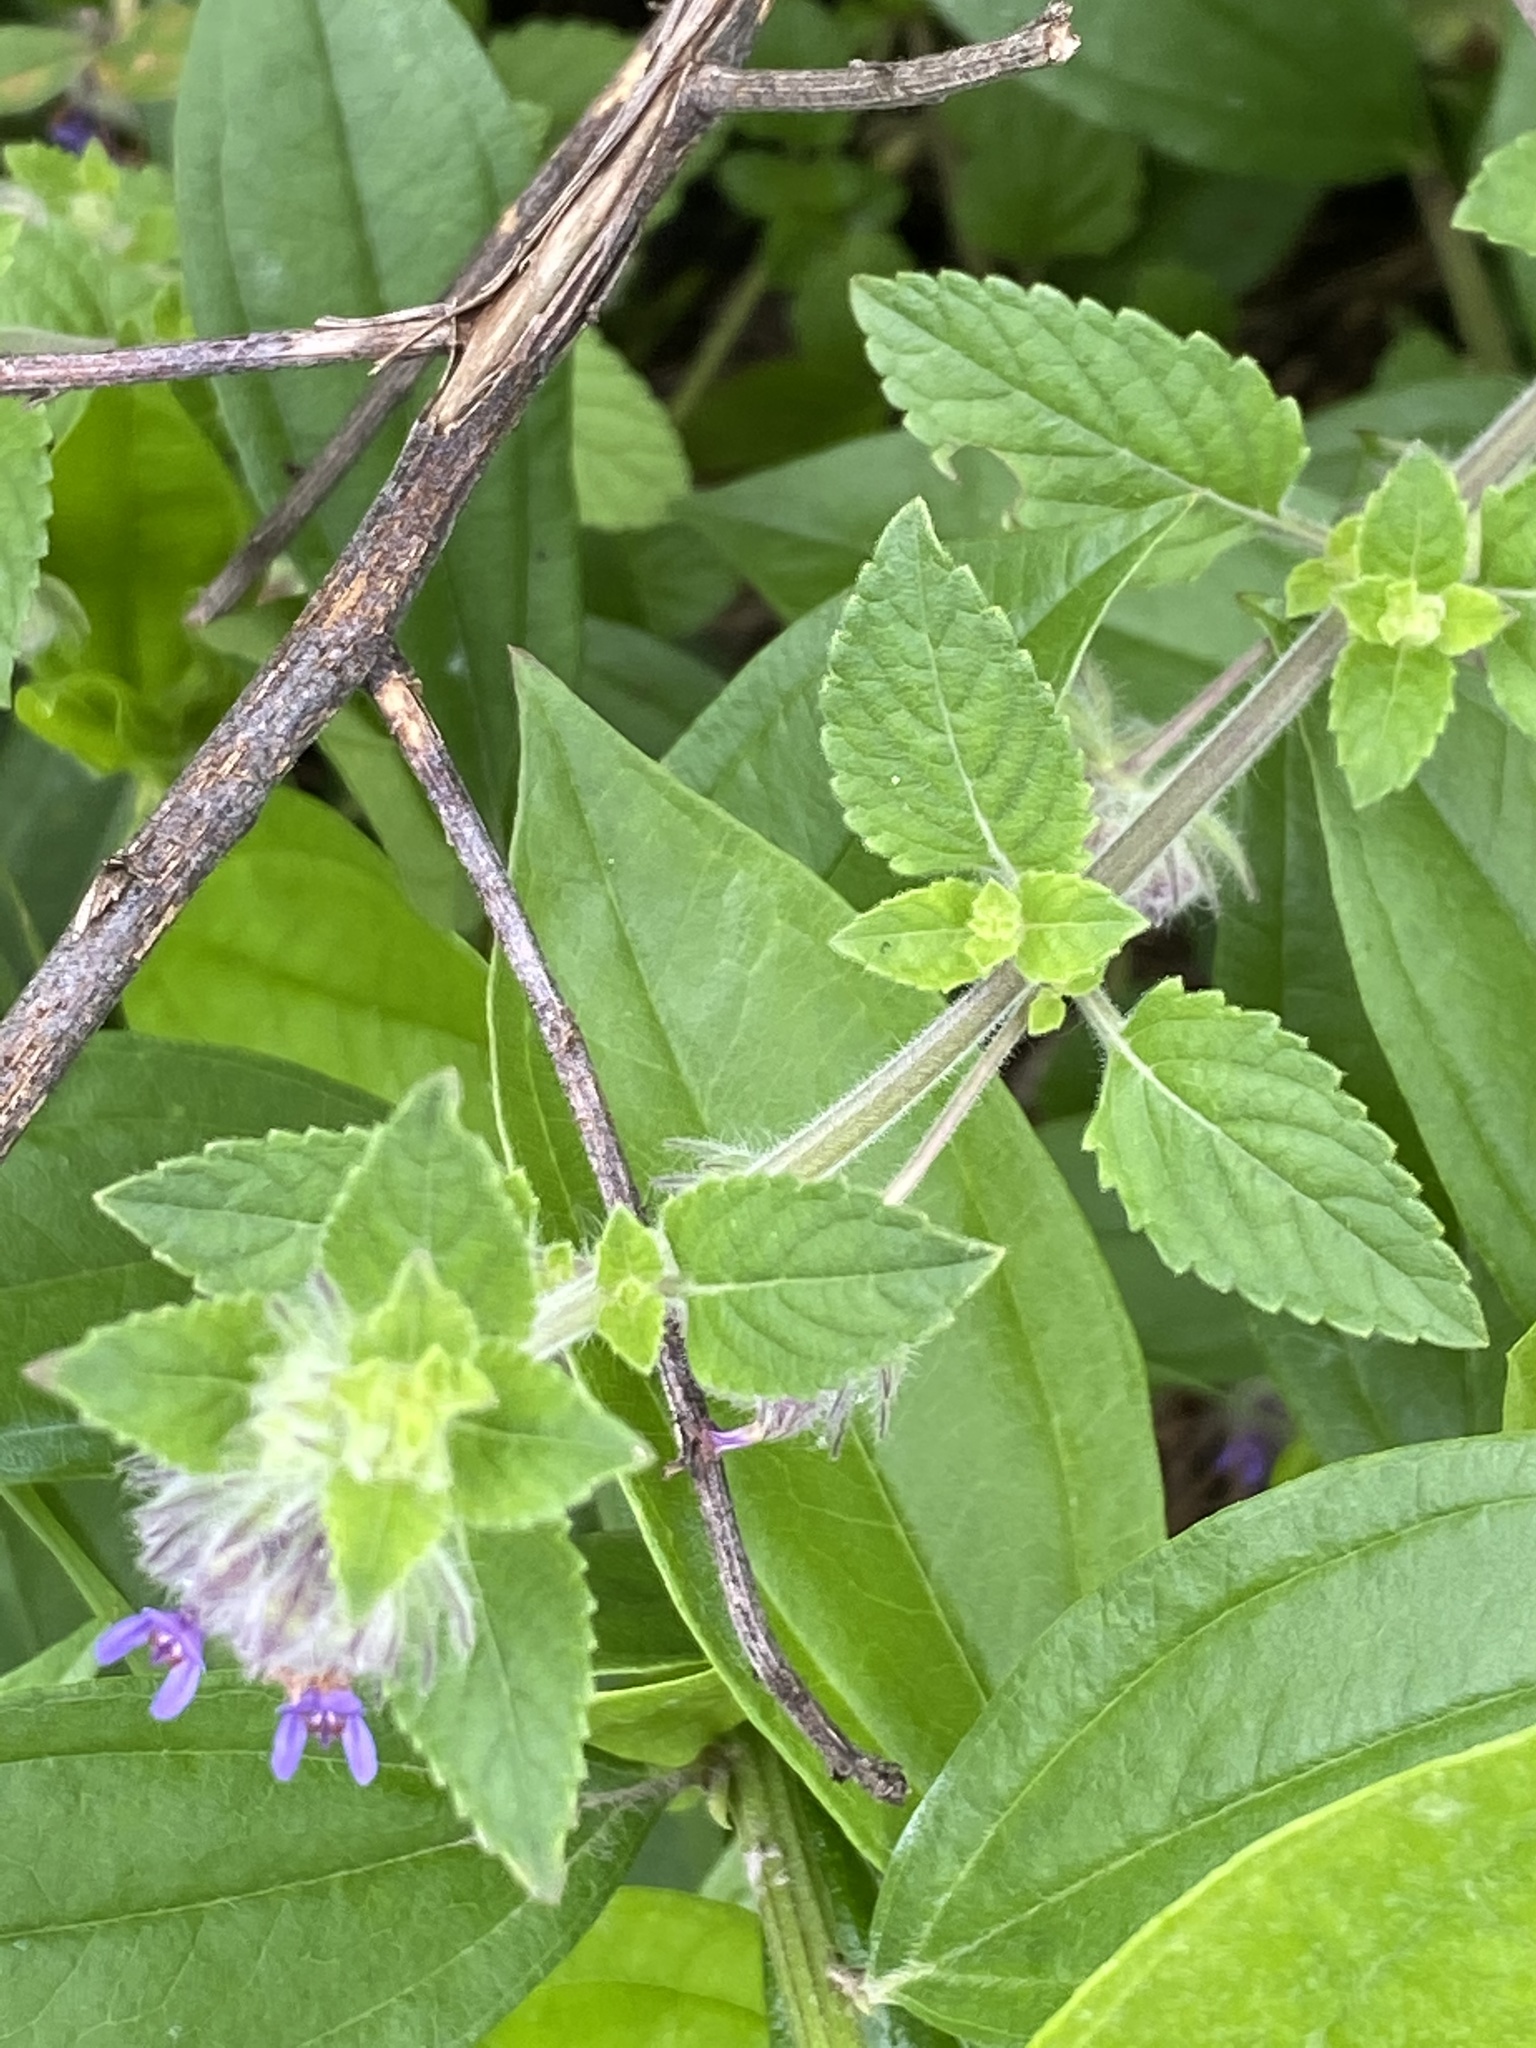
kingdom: Plantae
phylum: Tracheophyta
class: Magnoliopsida
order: Lamiales
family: Lamiaceae
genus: Marsypianthes
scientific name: Marsypianthes chamaedrys
